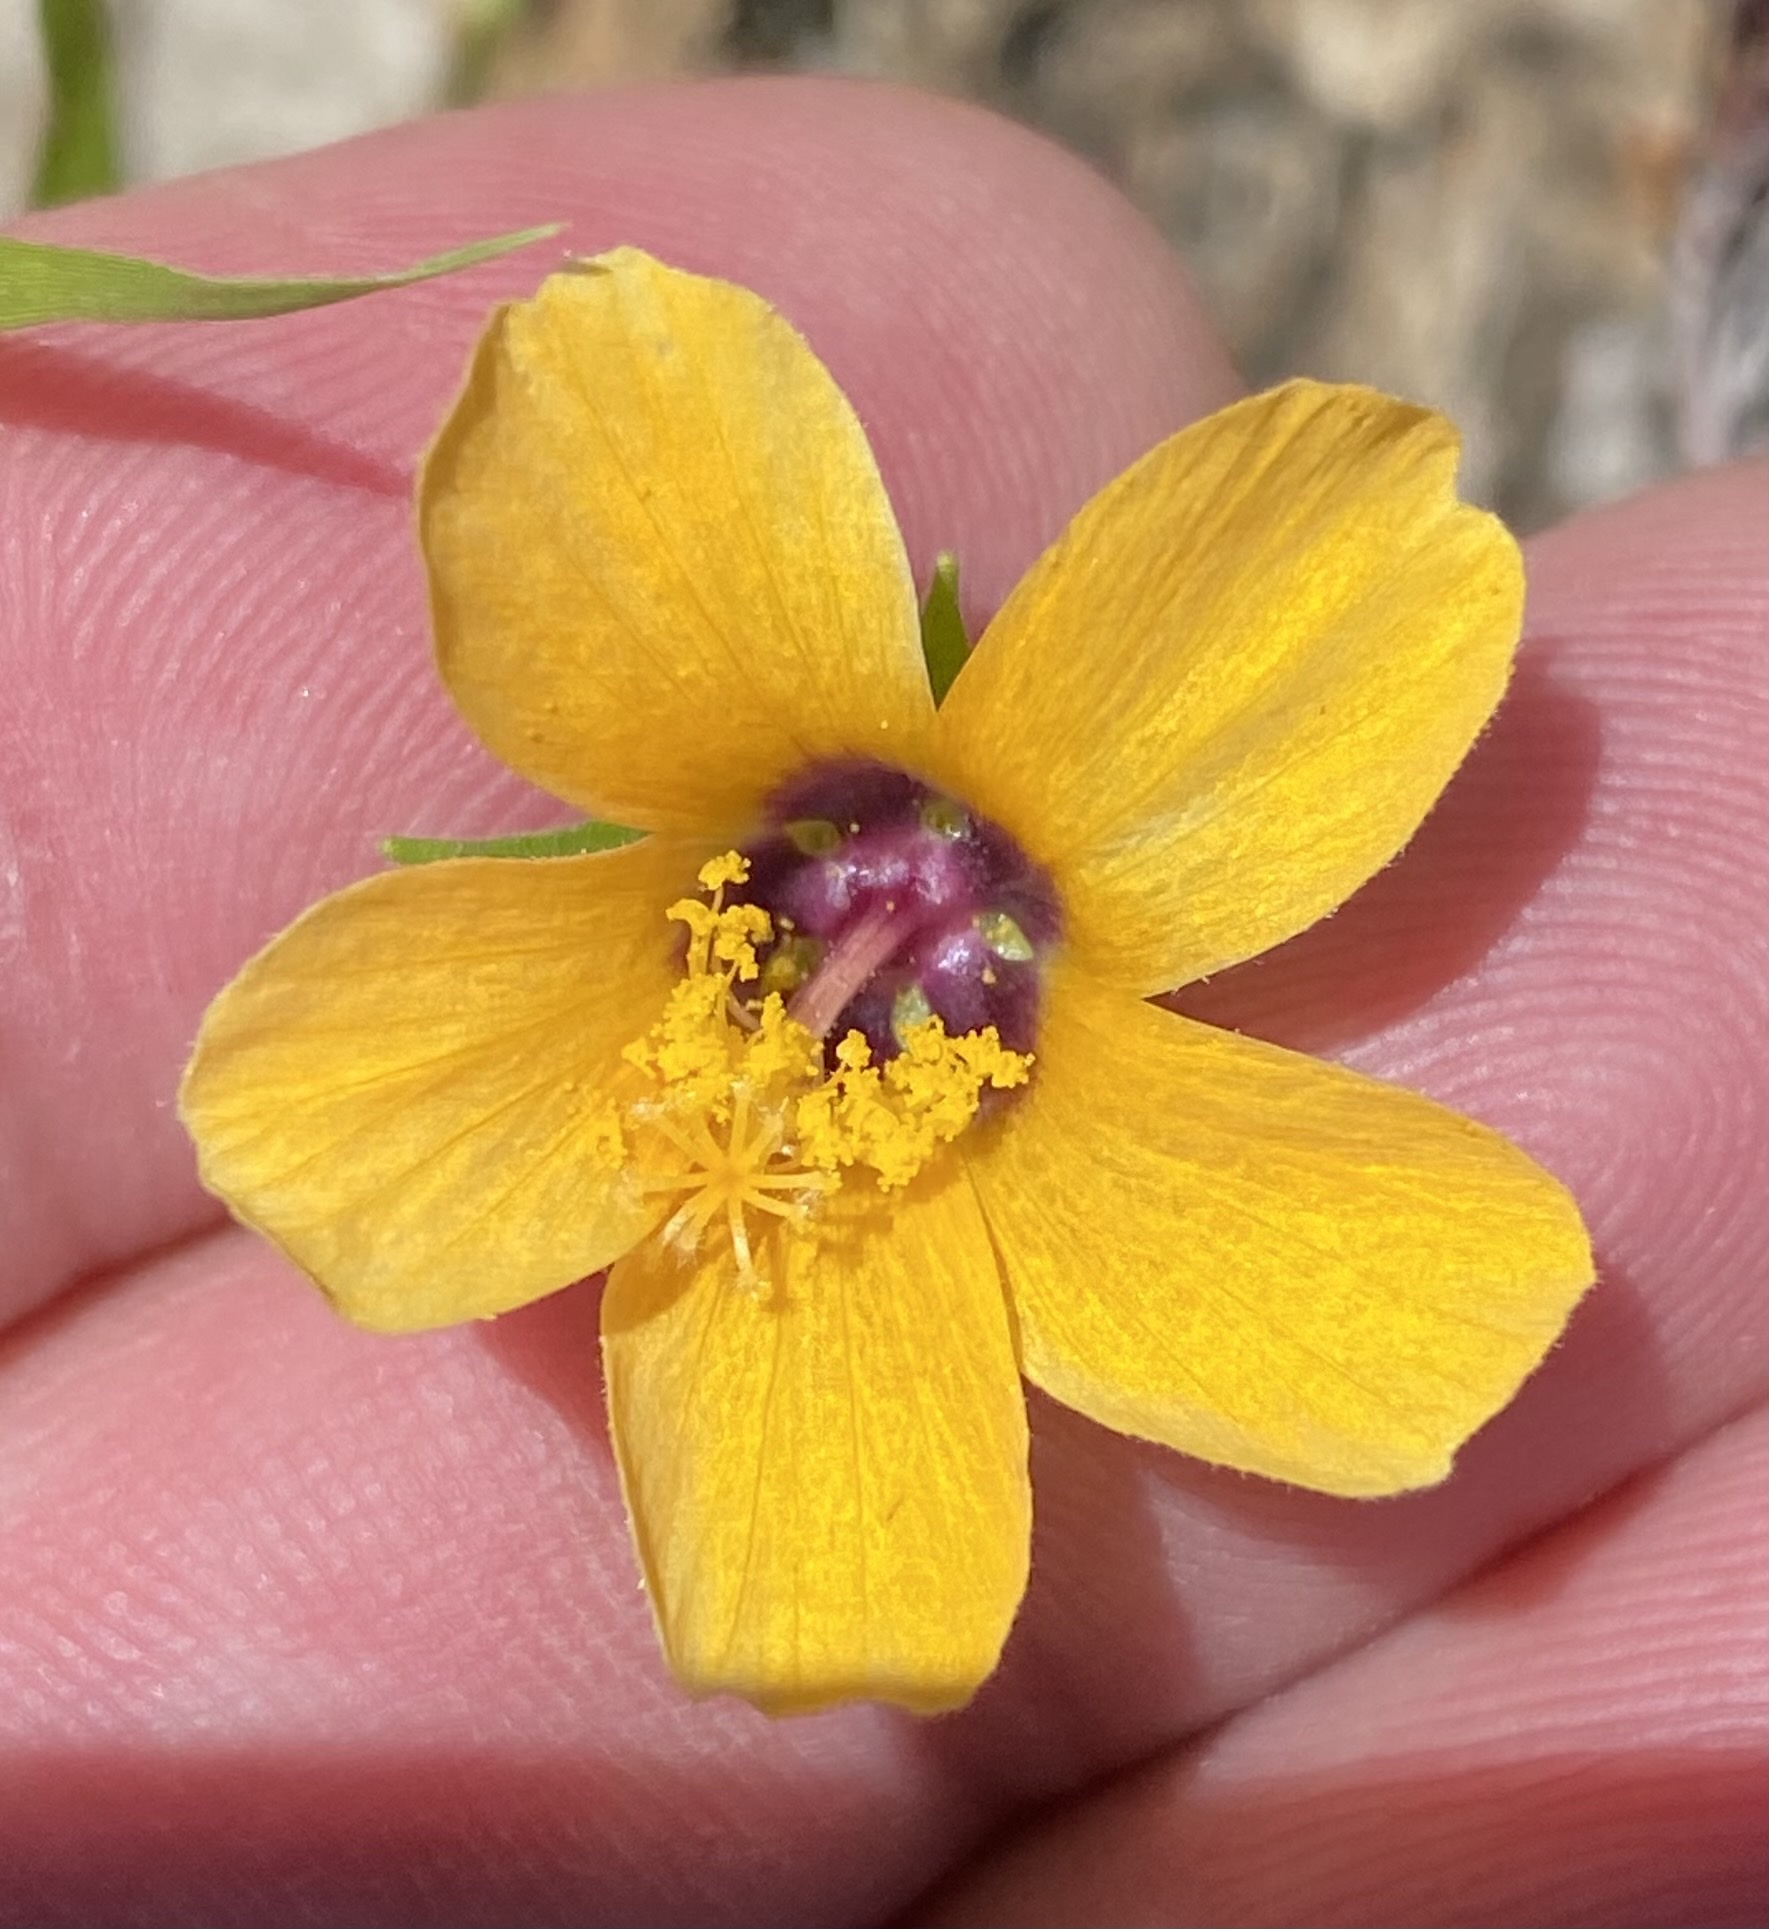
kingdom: Plantae
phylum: Tracheophyta
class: Magnoliopsida
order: Malvales
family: Malvaceae
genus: Pavonia
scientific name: Pavonia procumbens
